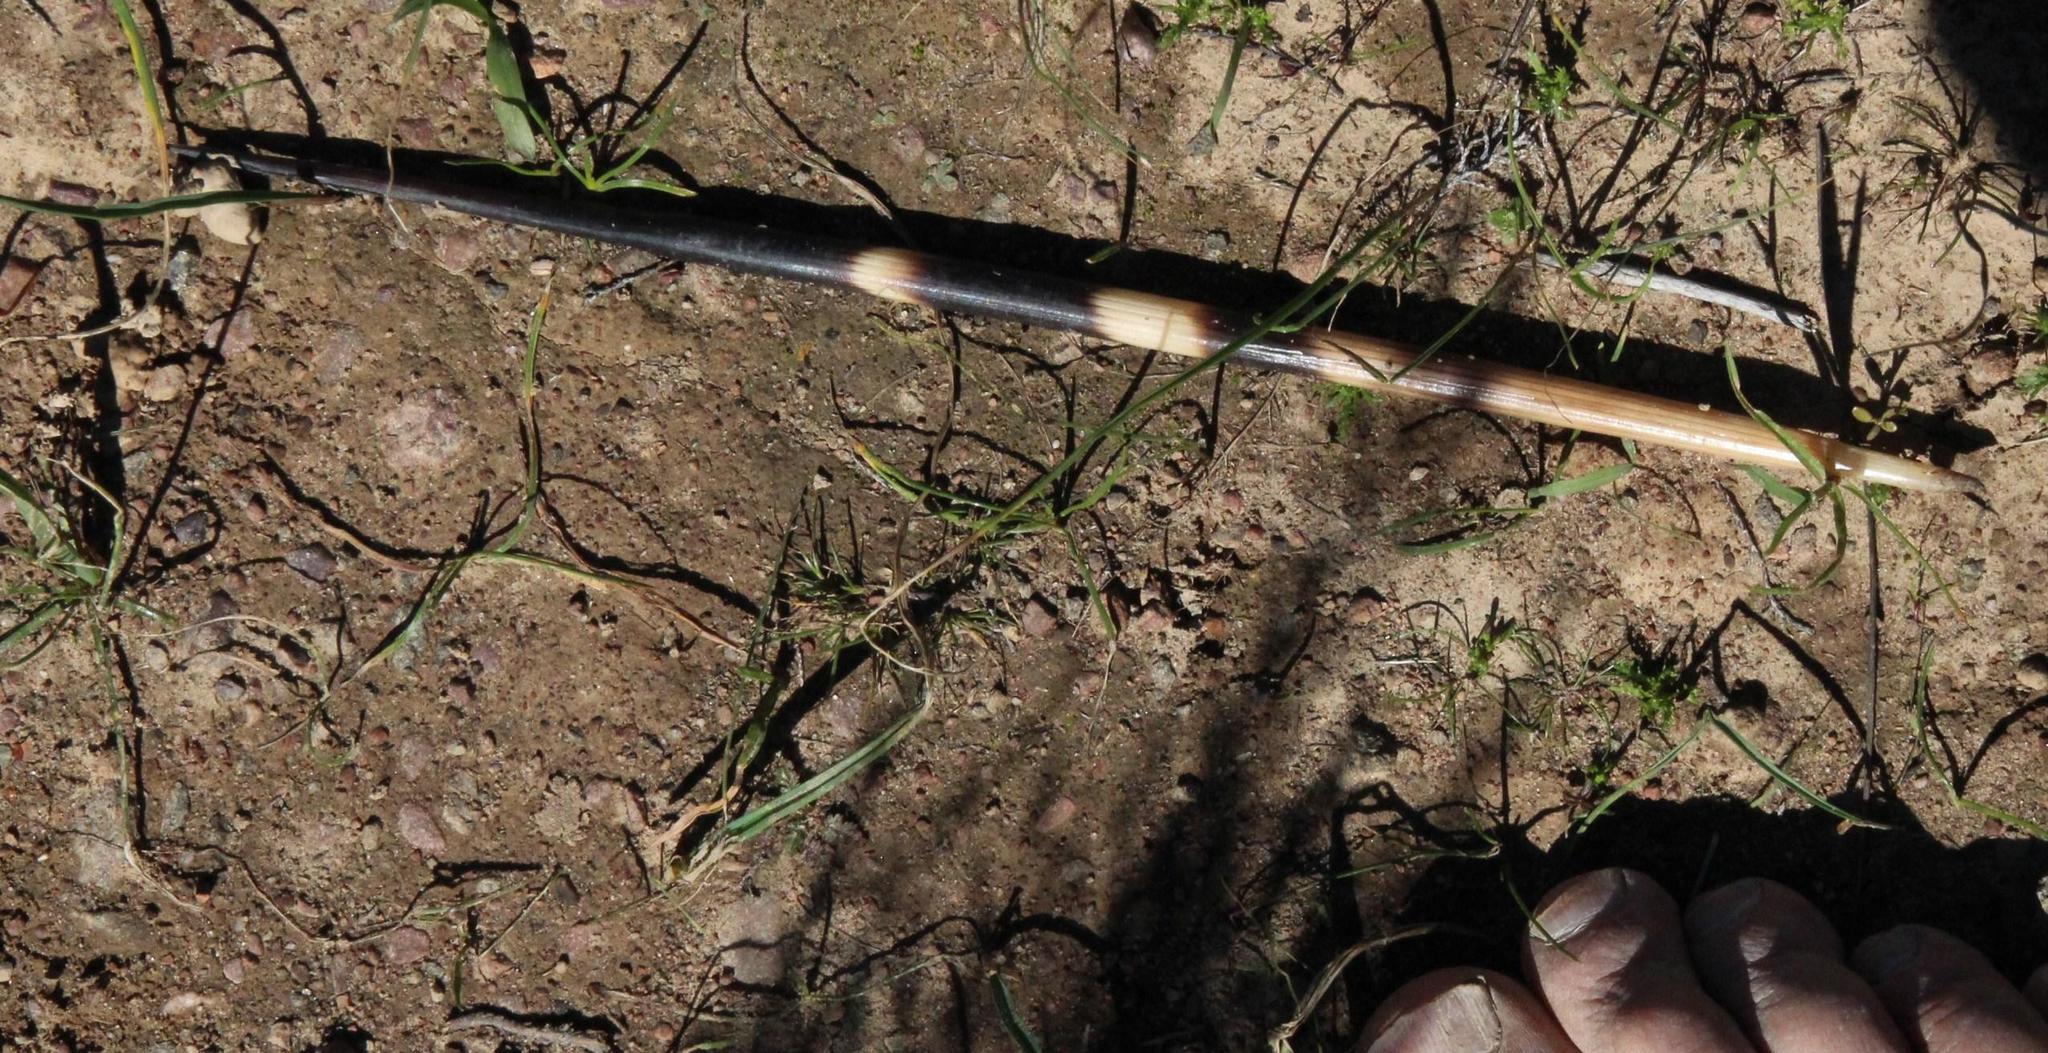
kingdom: Animalia
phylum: Chordata
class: Mammalia
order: Rodentia
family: Hystricidae
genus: Hystrix
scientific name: Hystrix africaeaustralis
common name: Cape porcupine
